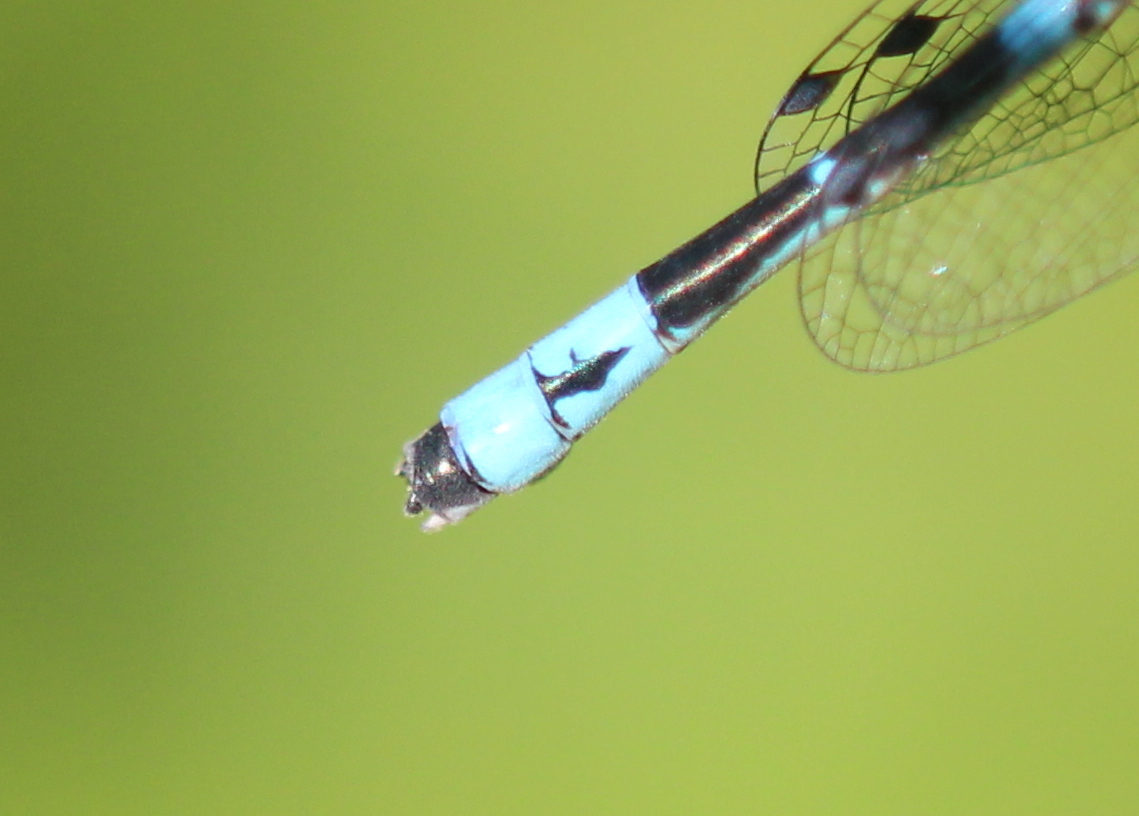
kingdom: Animalia
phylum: Arthropoda
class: Insecta
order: Odonata
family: Coenagrionidae
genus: Enallagma
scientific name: Enallagma laterale
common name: New england bluet
